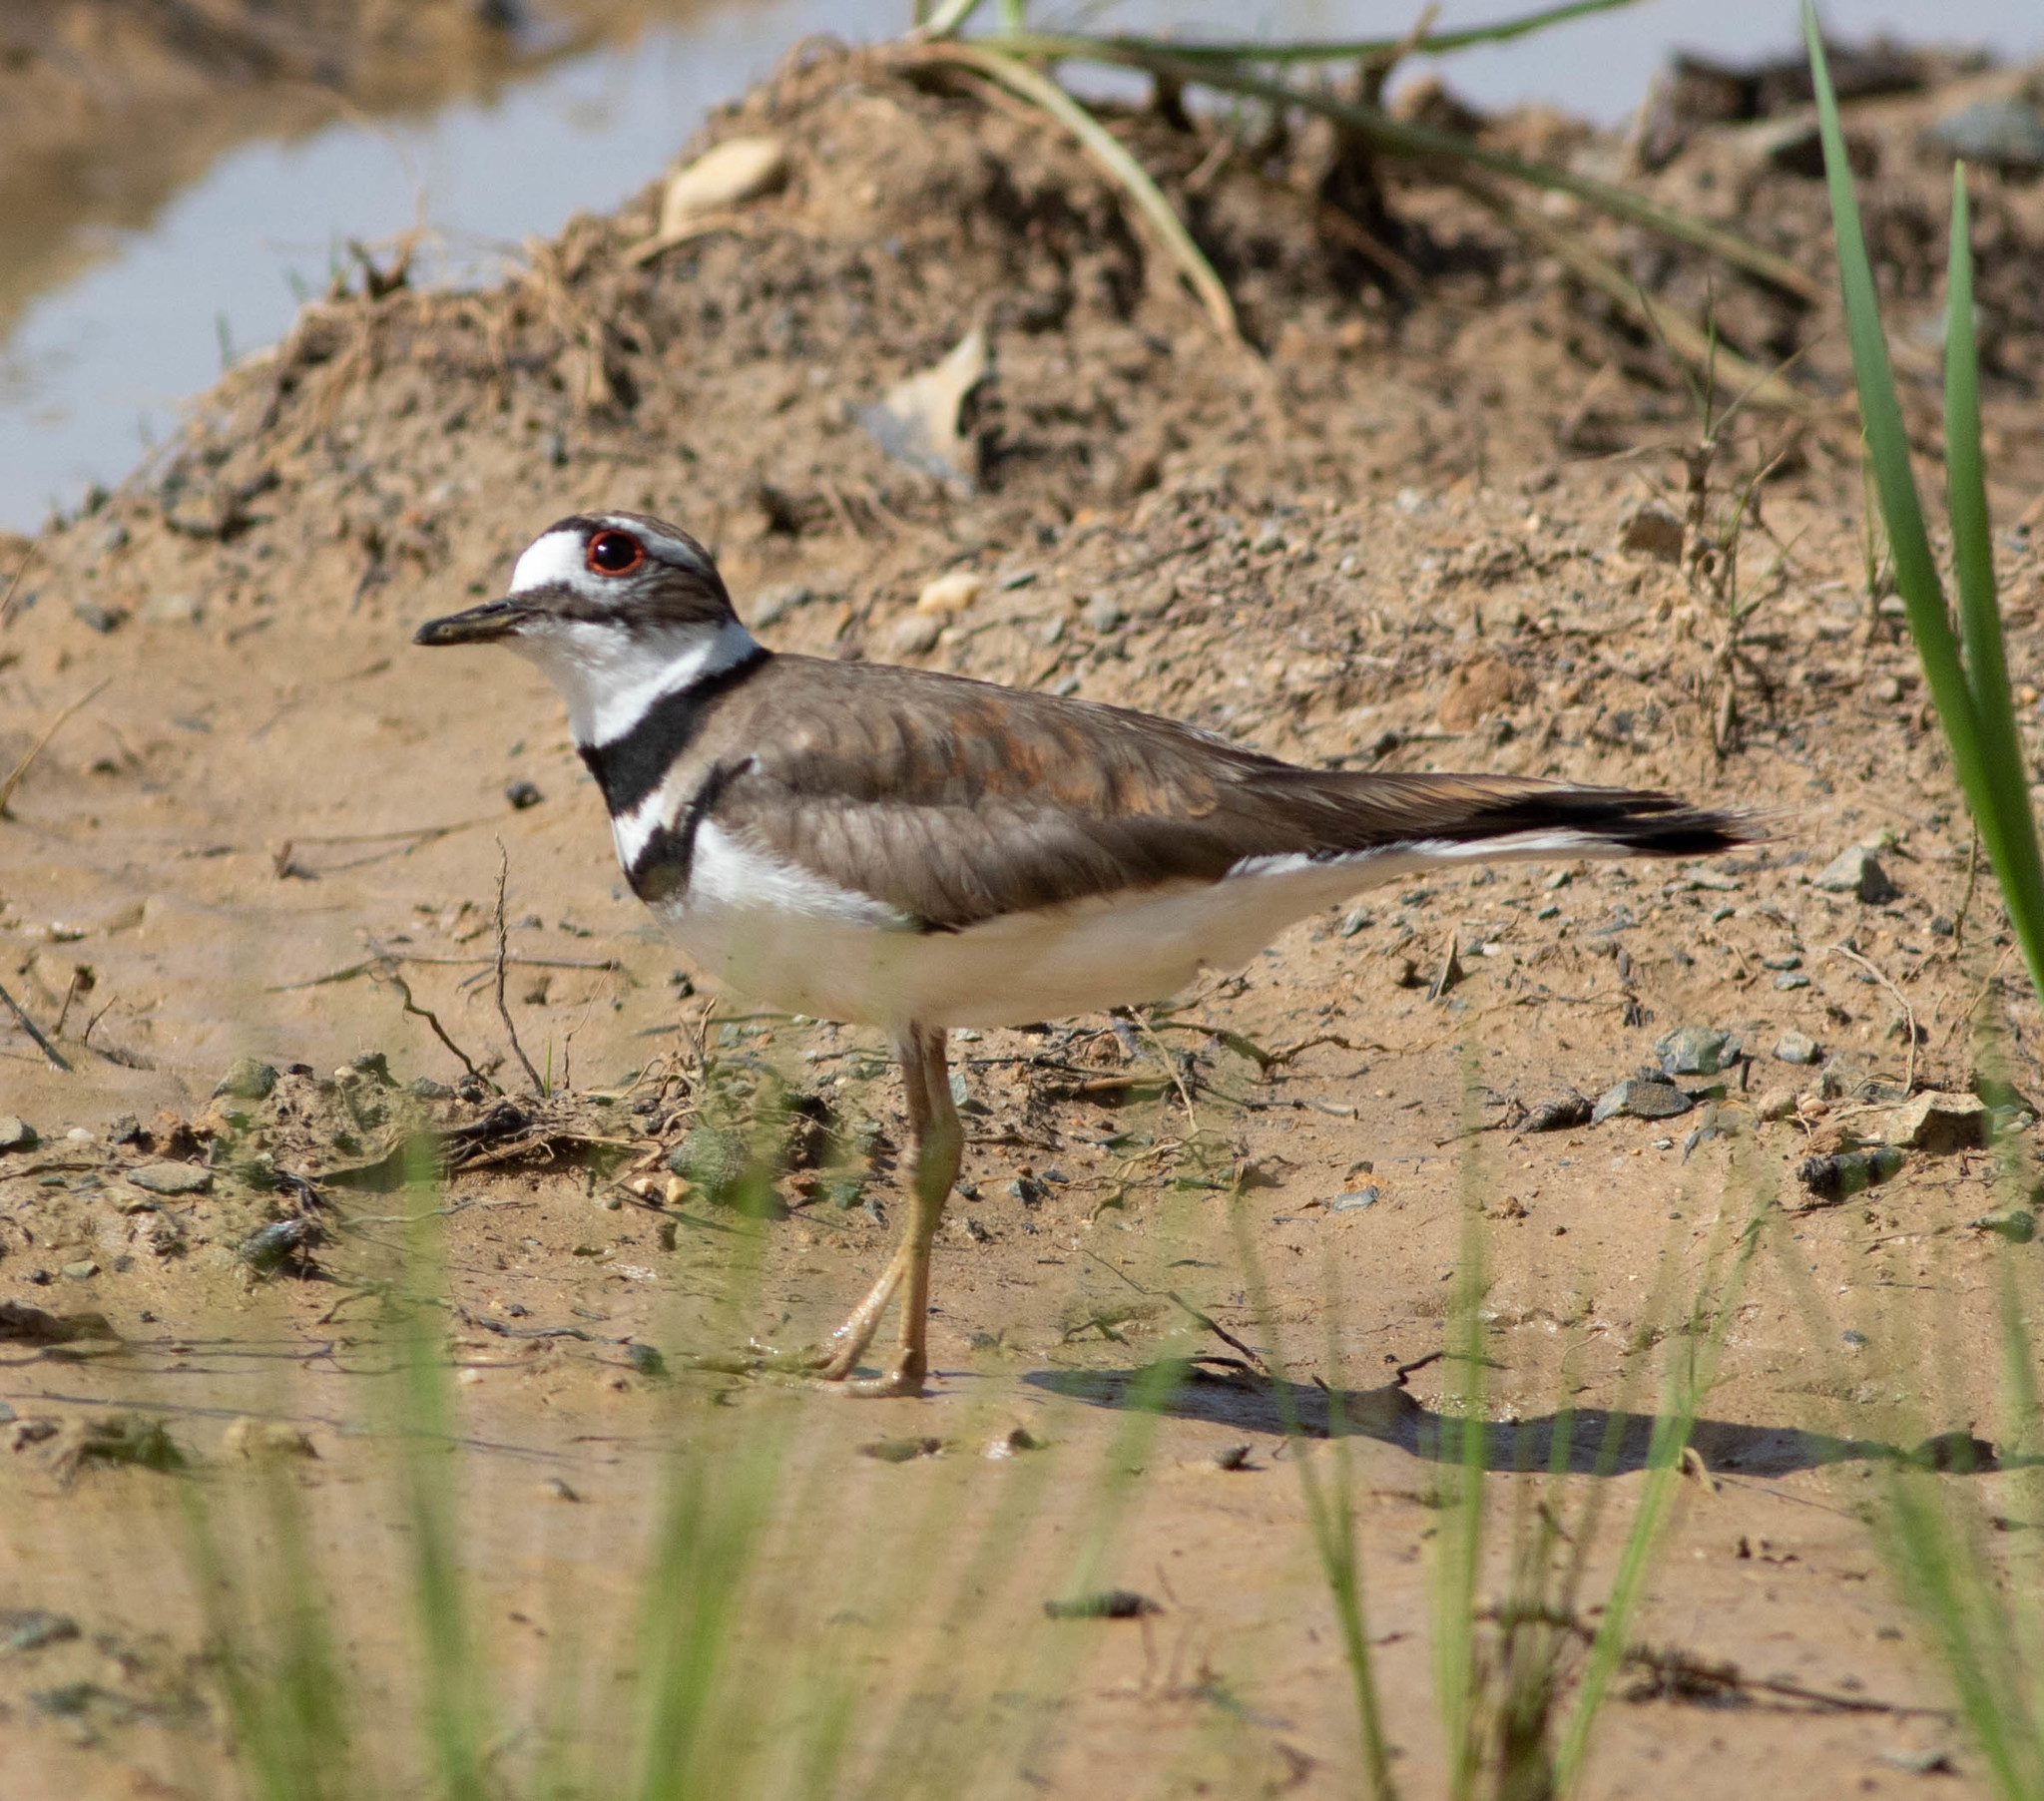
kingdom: Animalia
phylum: Chordata
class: Aves
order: Charadriiformes
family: Charadriidae
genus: Charadrius
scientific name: Charadrius vociferus
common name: Killdeer
